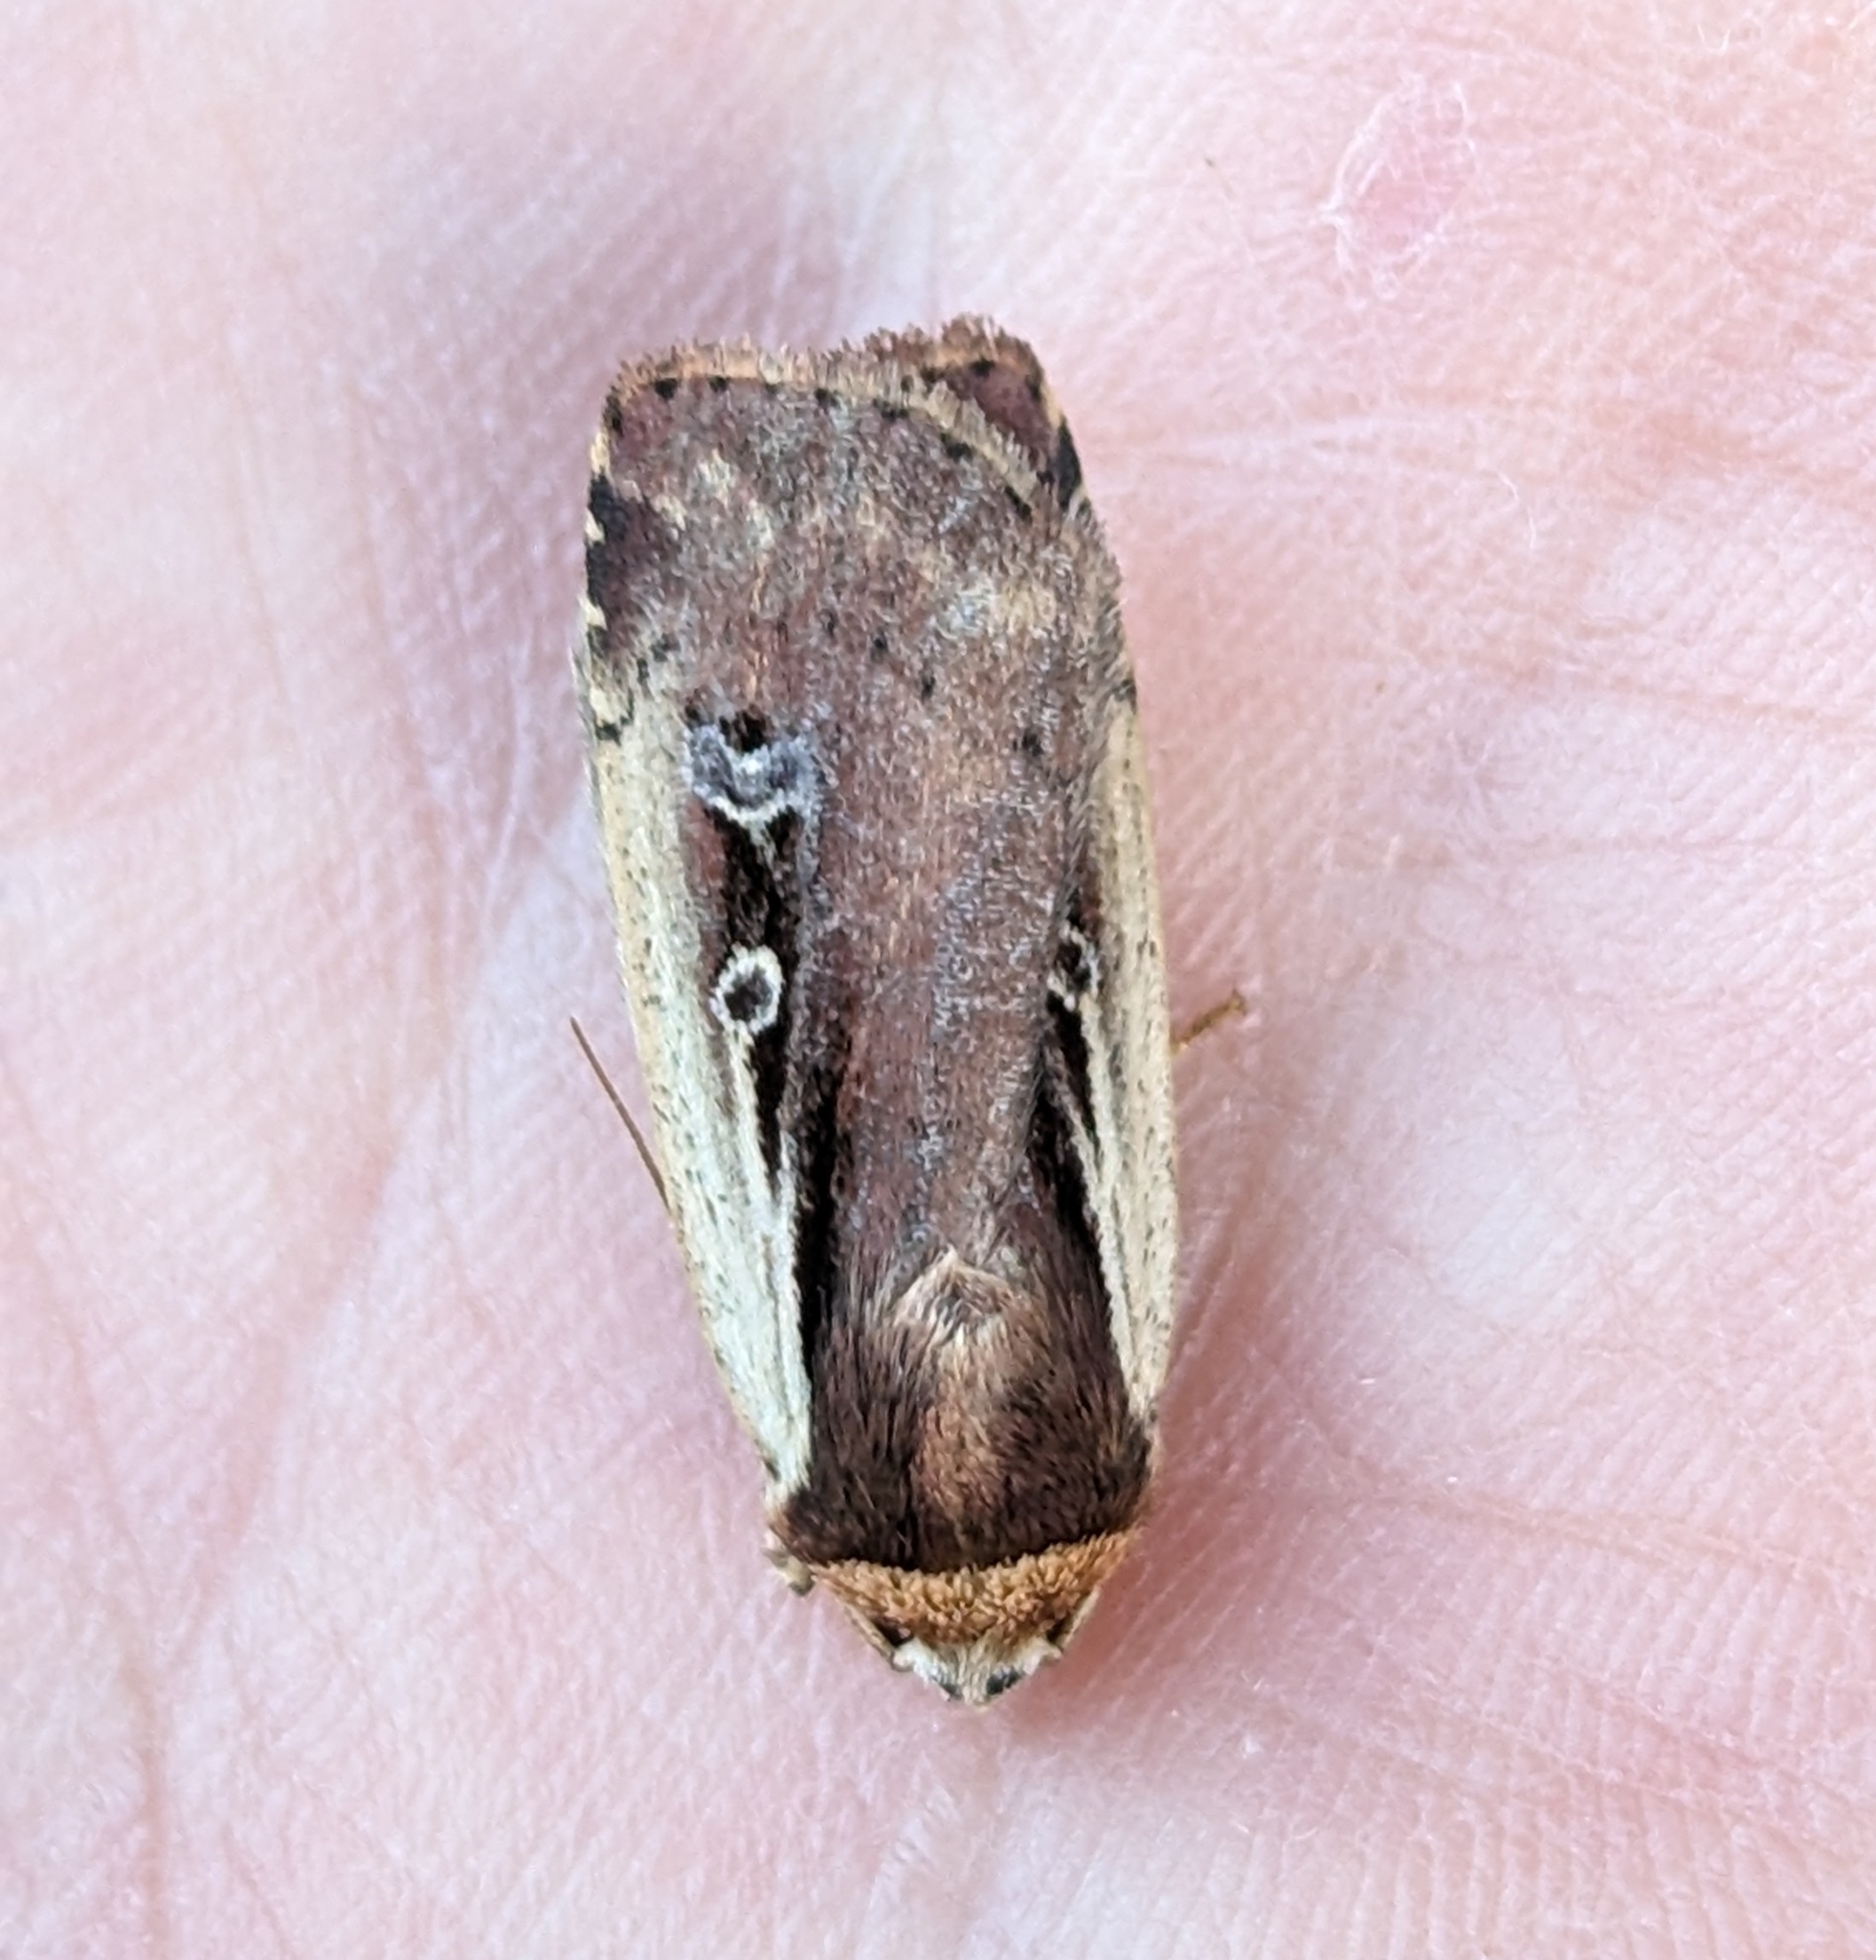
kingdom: Animalia
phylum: Arthropoda
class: Insecta
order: Lepidoptera
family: Noctuidae
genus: Ochropleura
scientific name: Ochropleura implecta
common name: Flame-shouldered dart
